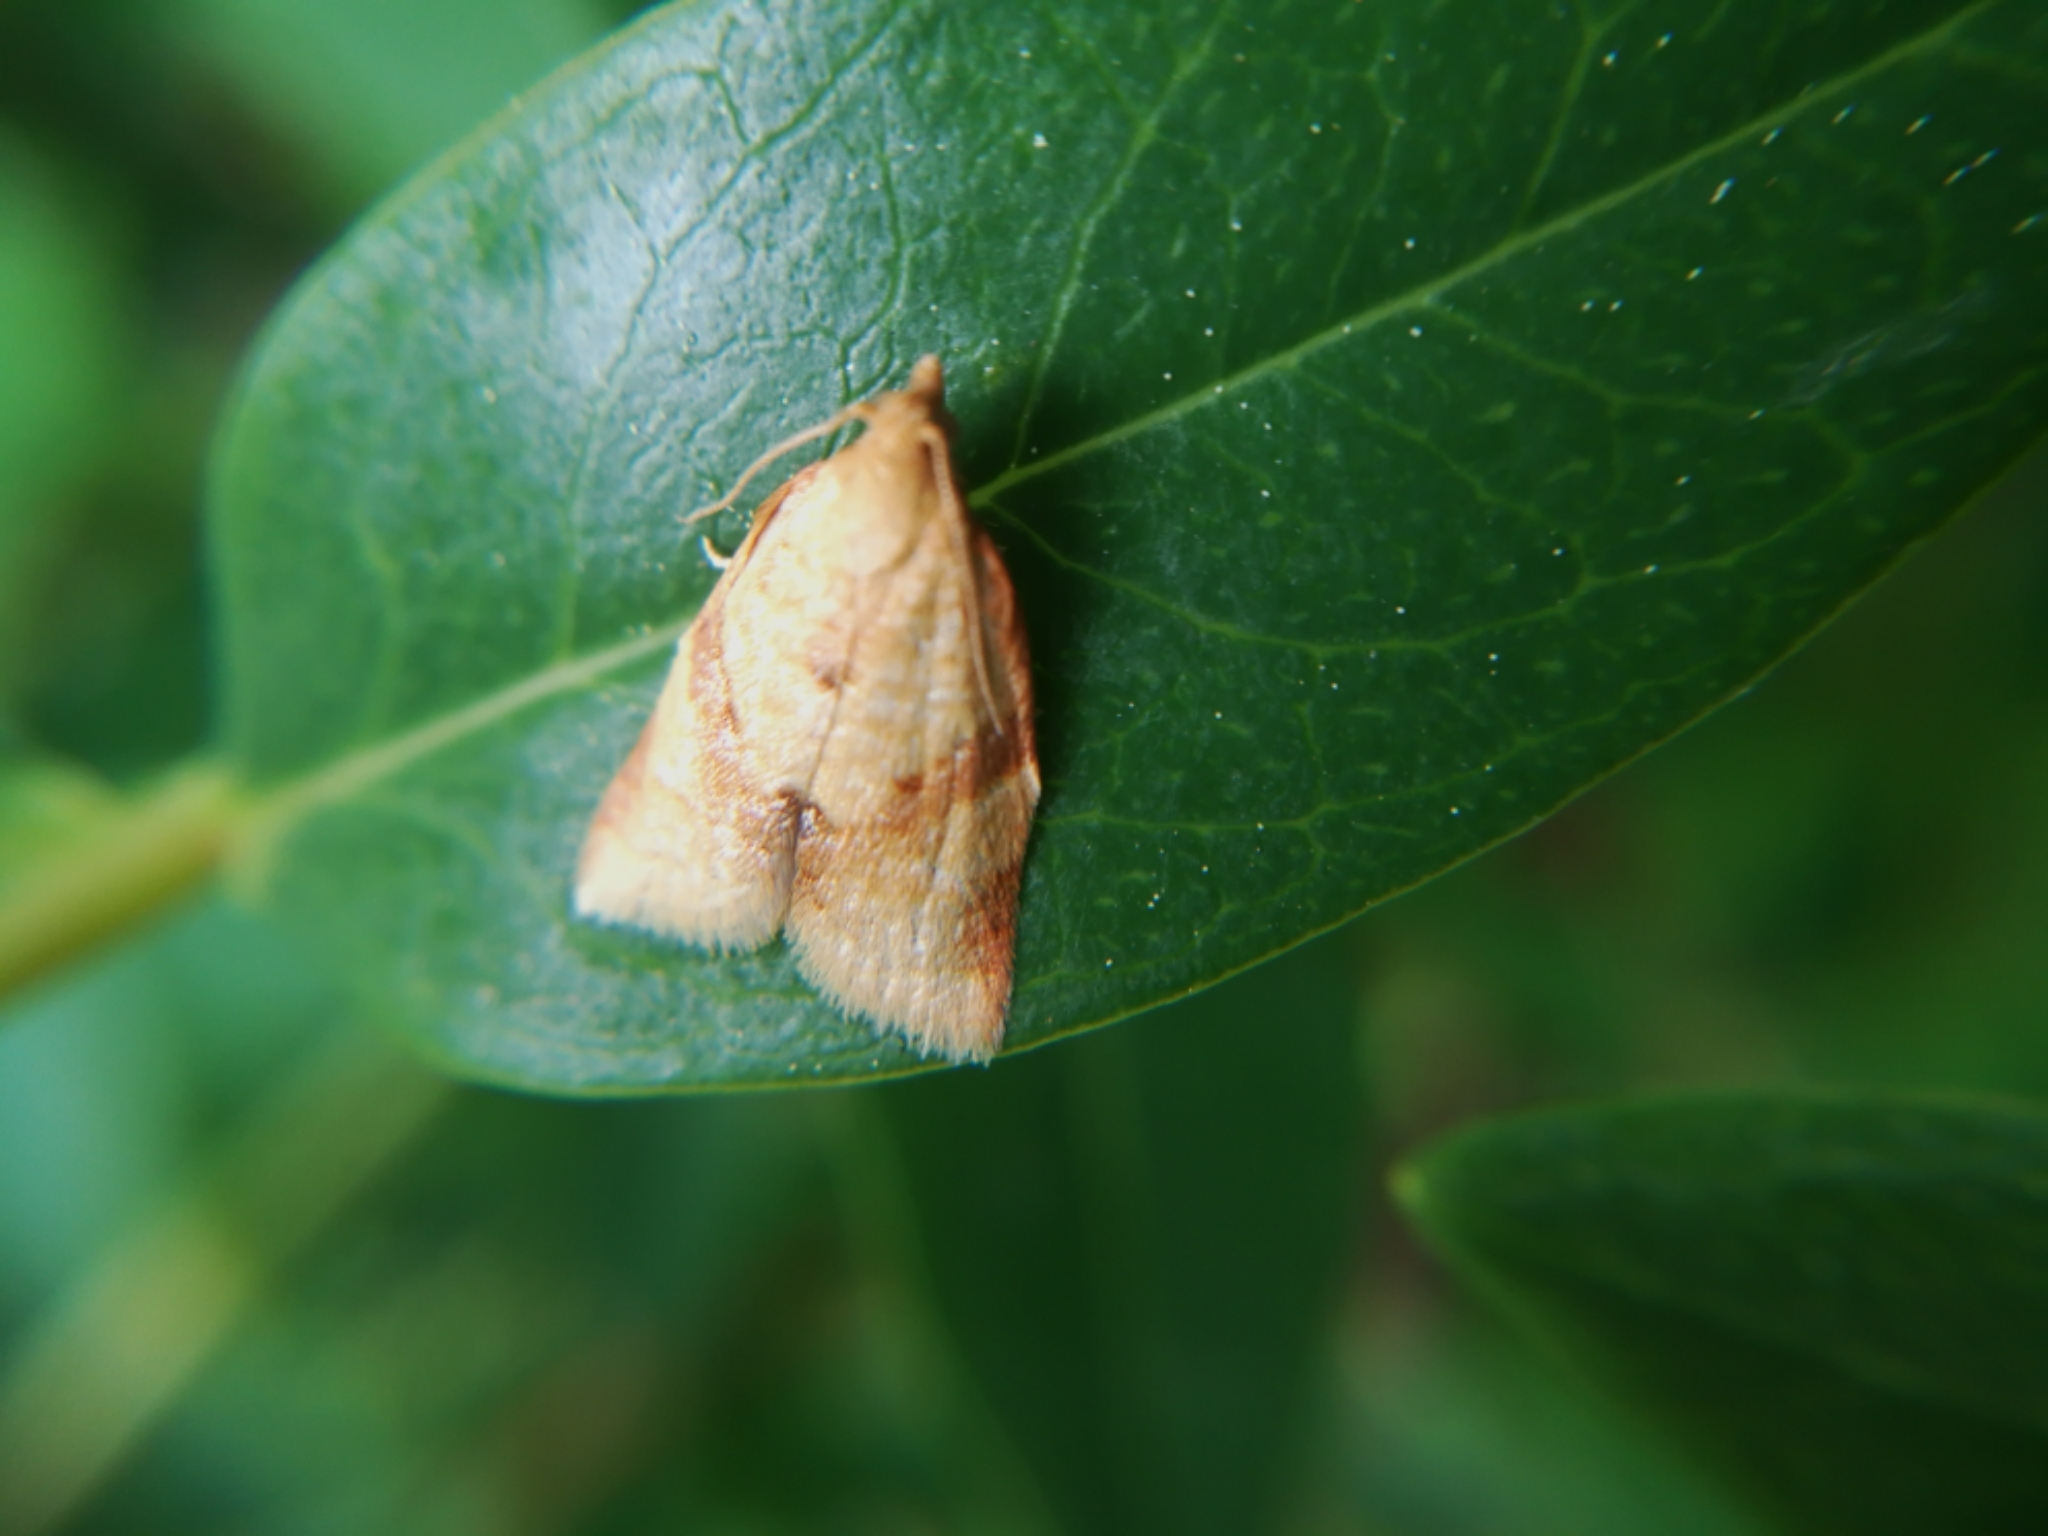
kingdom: Animalia
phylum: Arthropoda
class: Insecta
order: Lepidoptera
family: Tortricidae
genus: Clepsis
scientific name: Clepsis consimilana
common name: Privet tortrix
